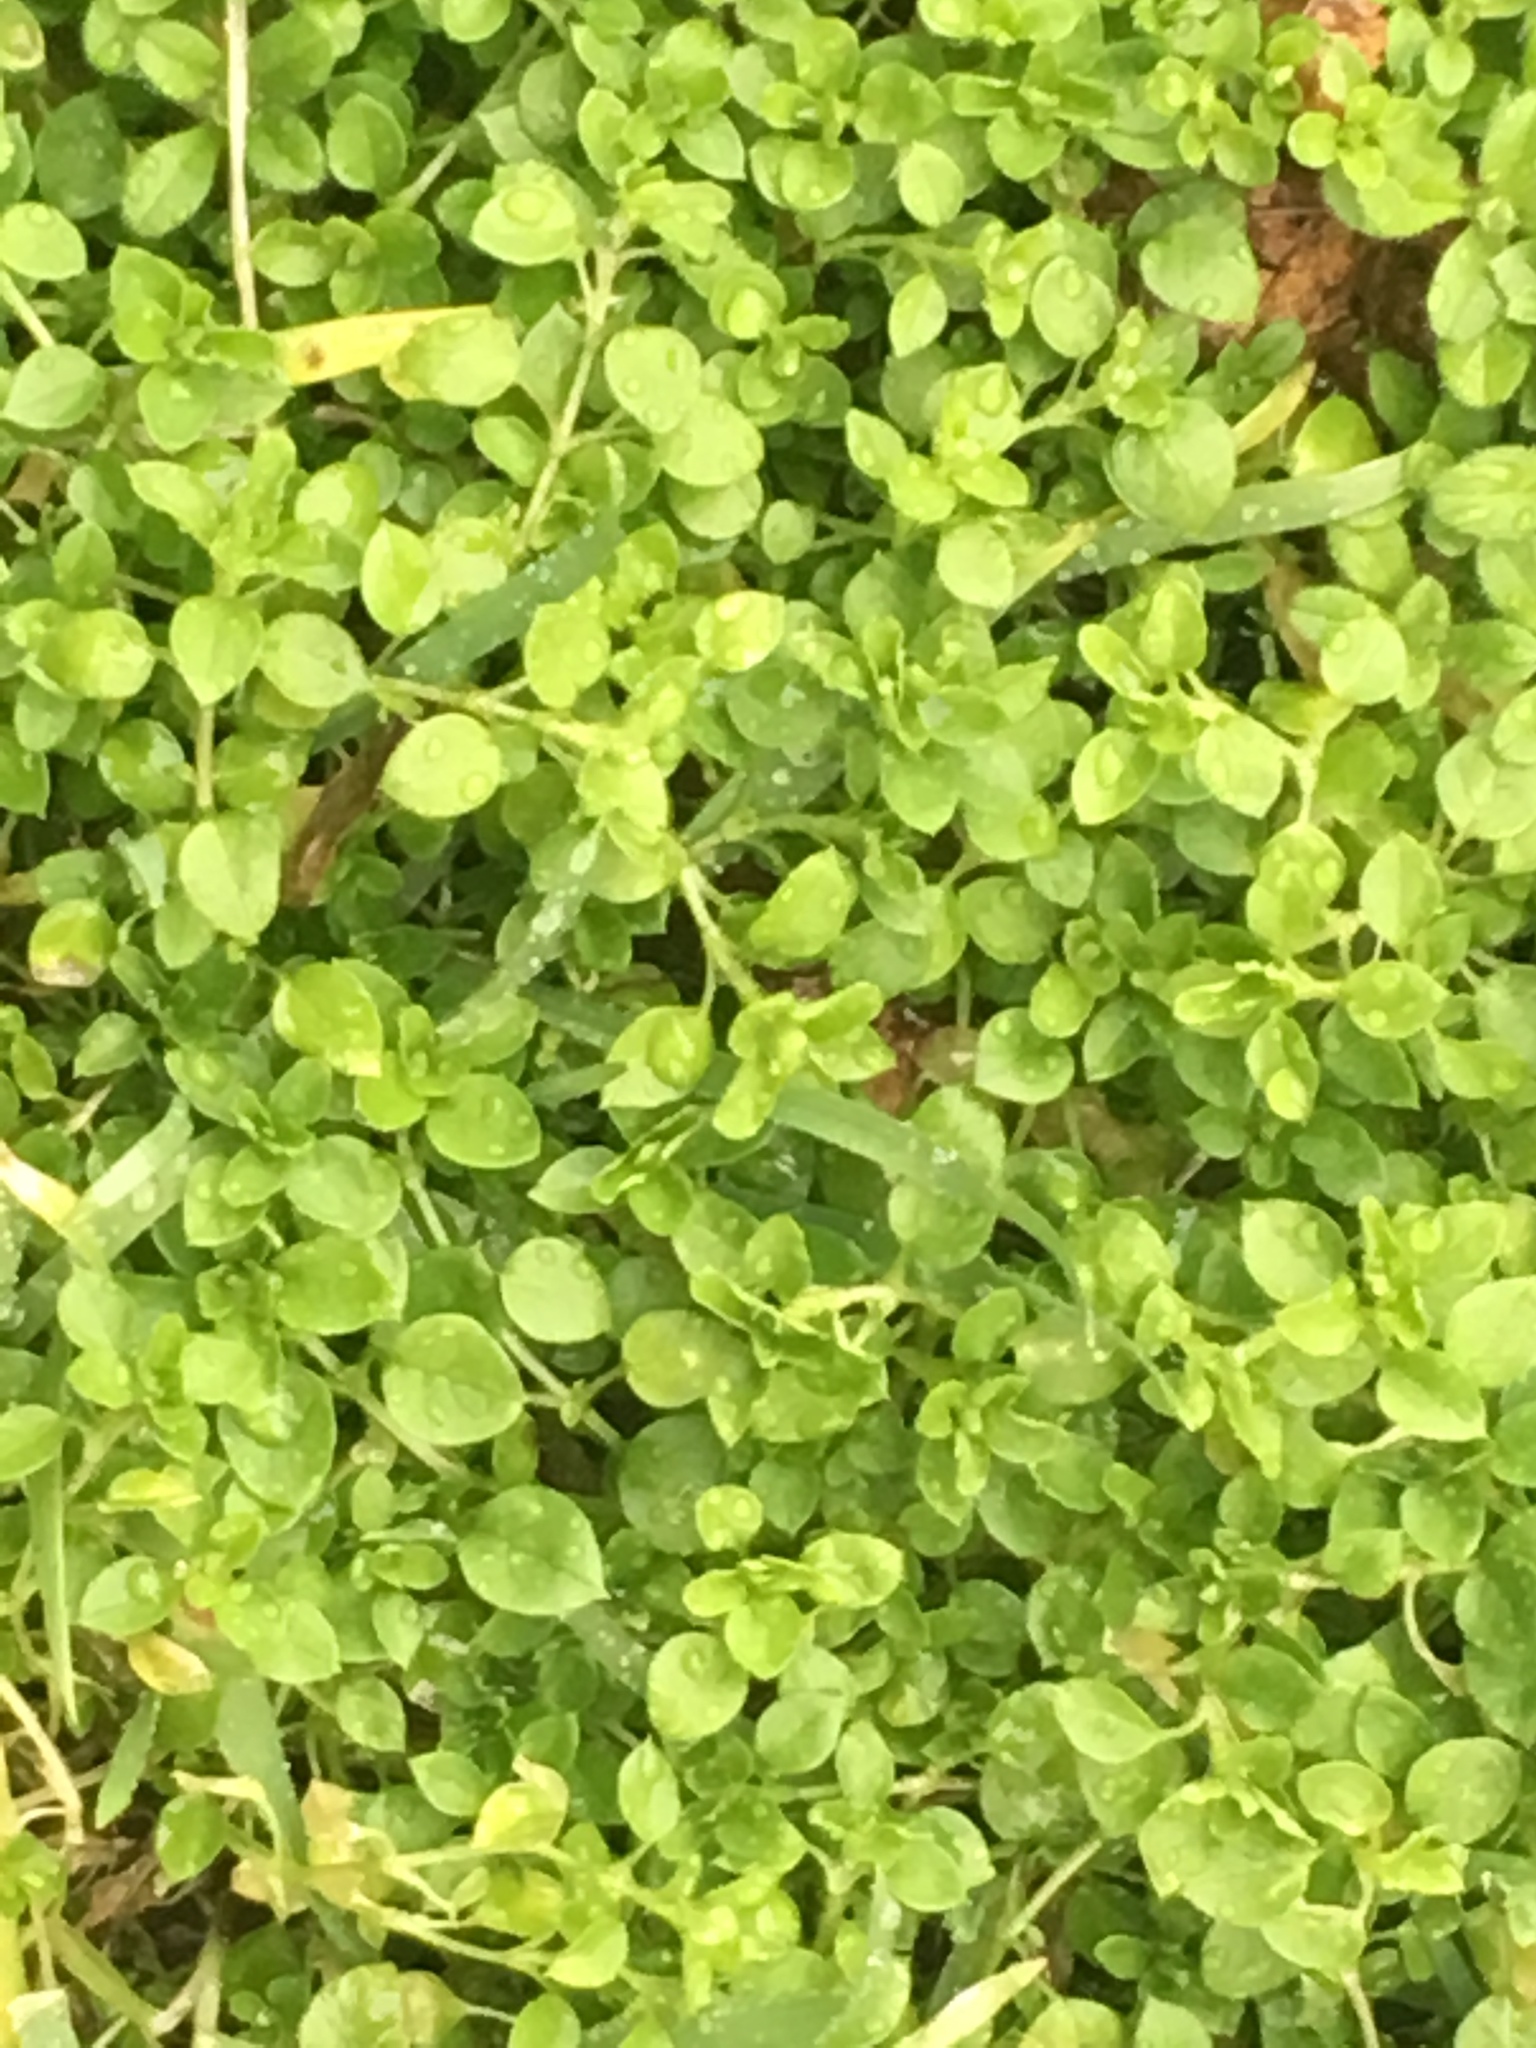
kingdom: Plantae
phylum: Tracheophyta
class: Magnoliopsida
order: Caryophyllales
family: Caryophyllaceae
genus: Stellaria
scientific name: Stellaria media
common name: Common chickweed
